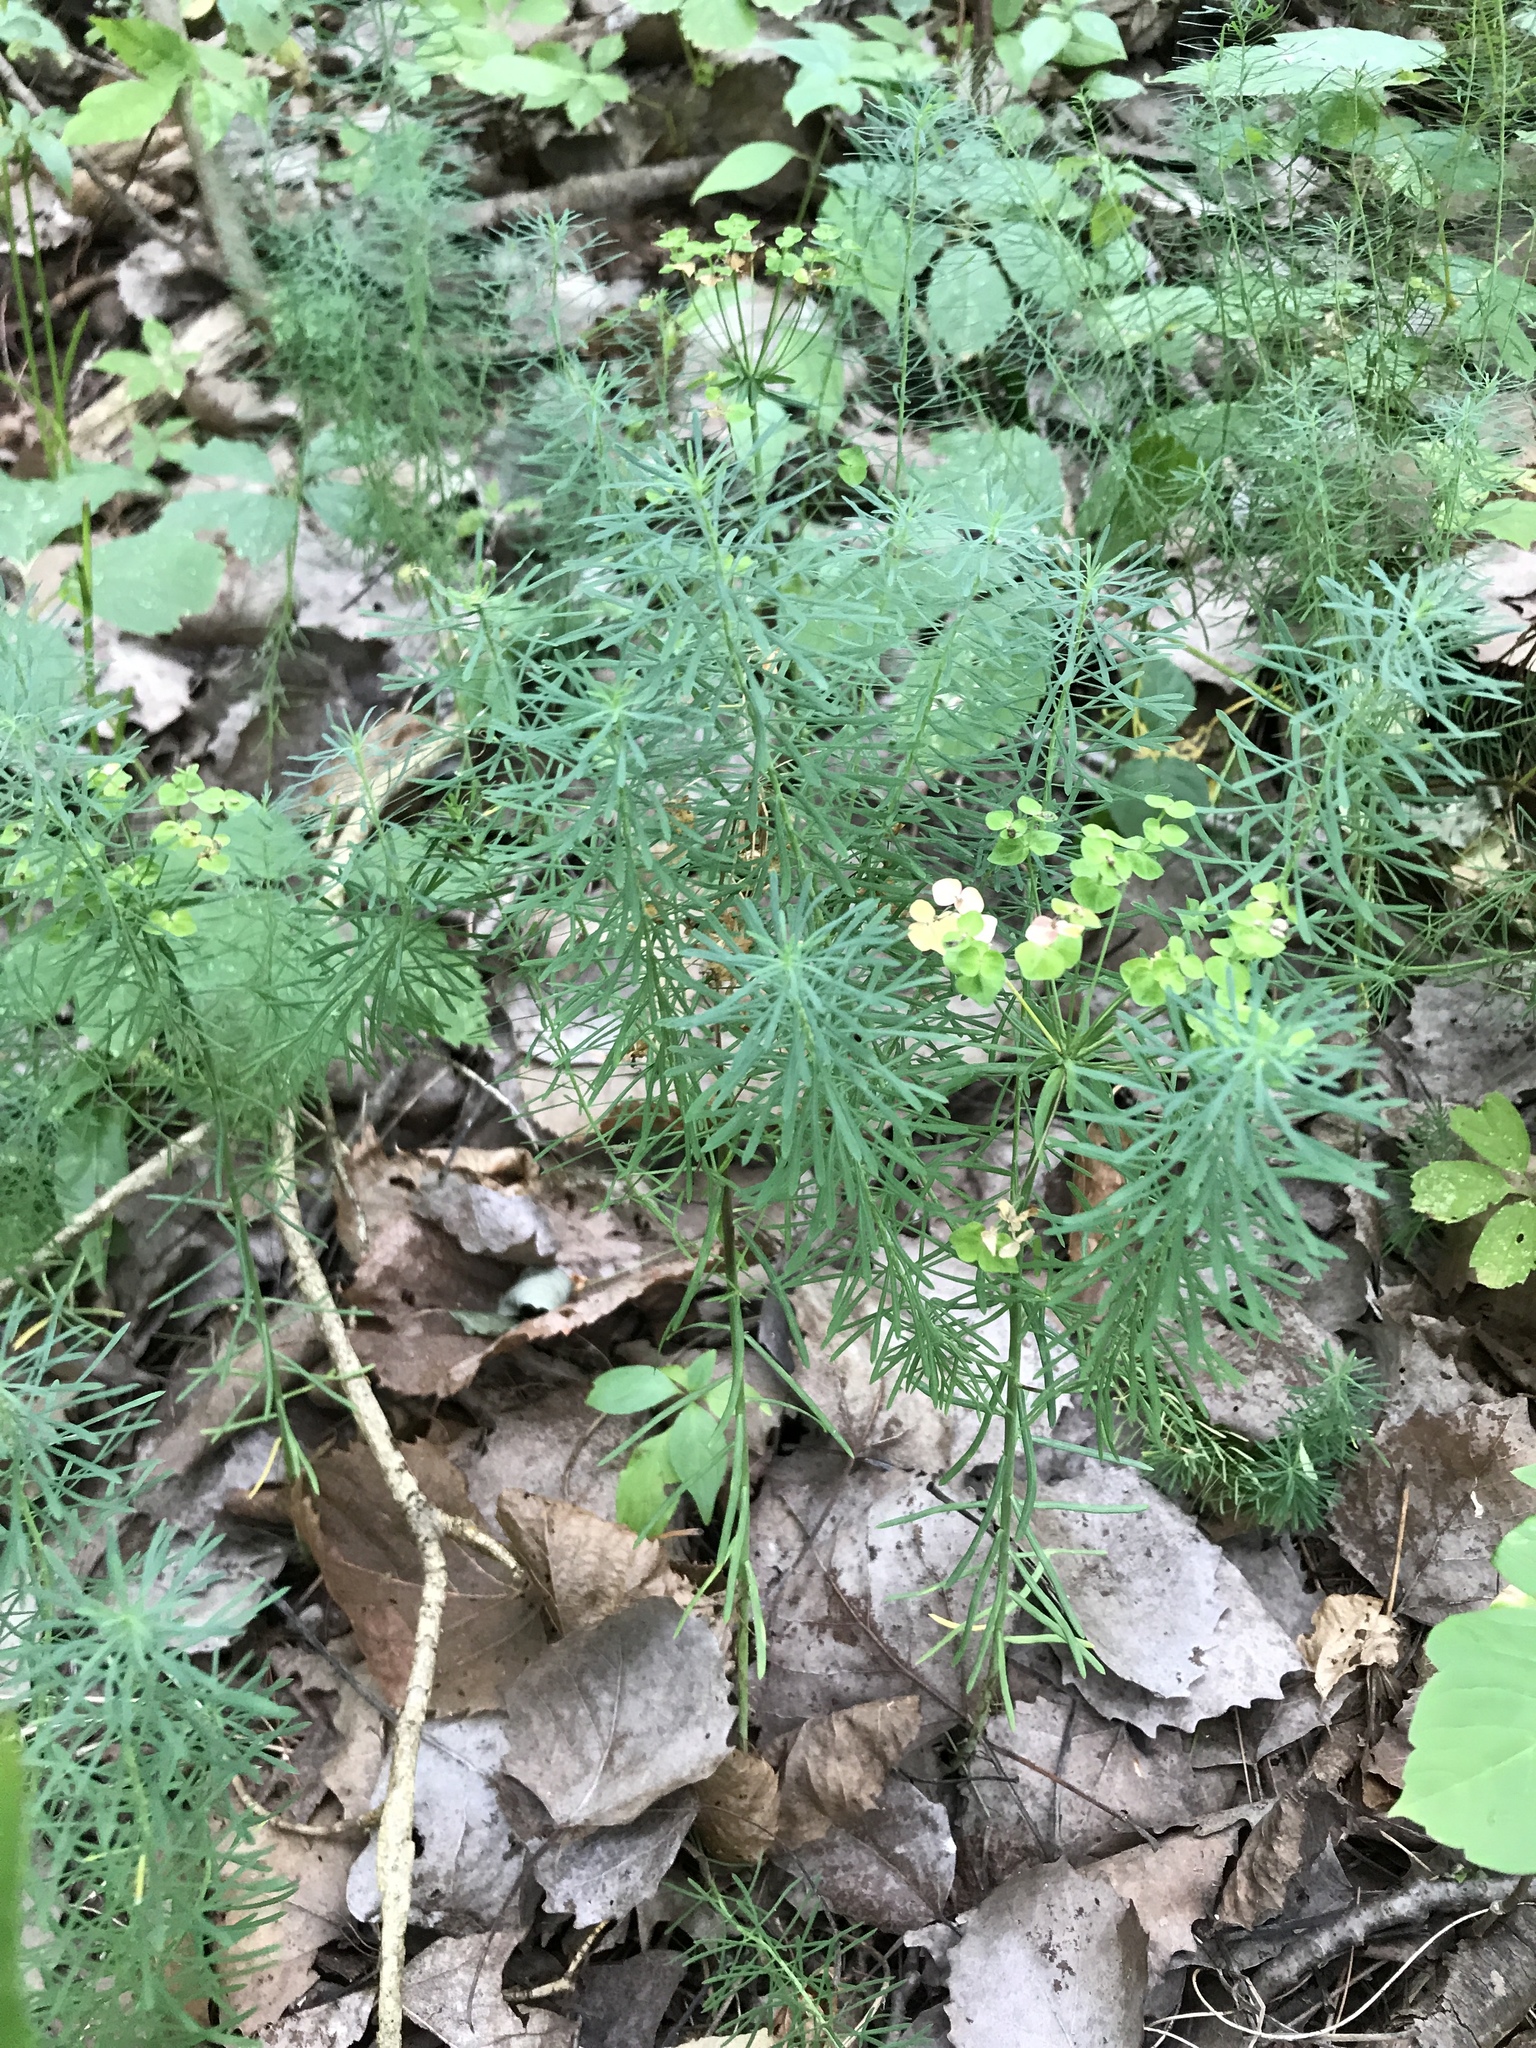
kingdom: Plantae
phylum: Tracheophyta
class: Magnoliopsida
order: Malpighiales
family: Euphorbiaceae
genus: Euphorbia
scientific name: Euphorbia cyparissias
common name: Cypress spurge
